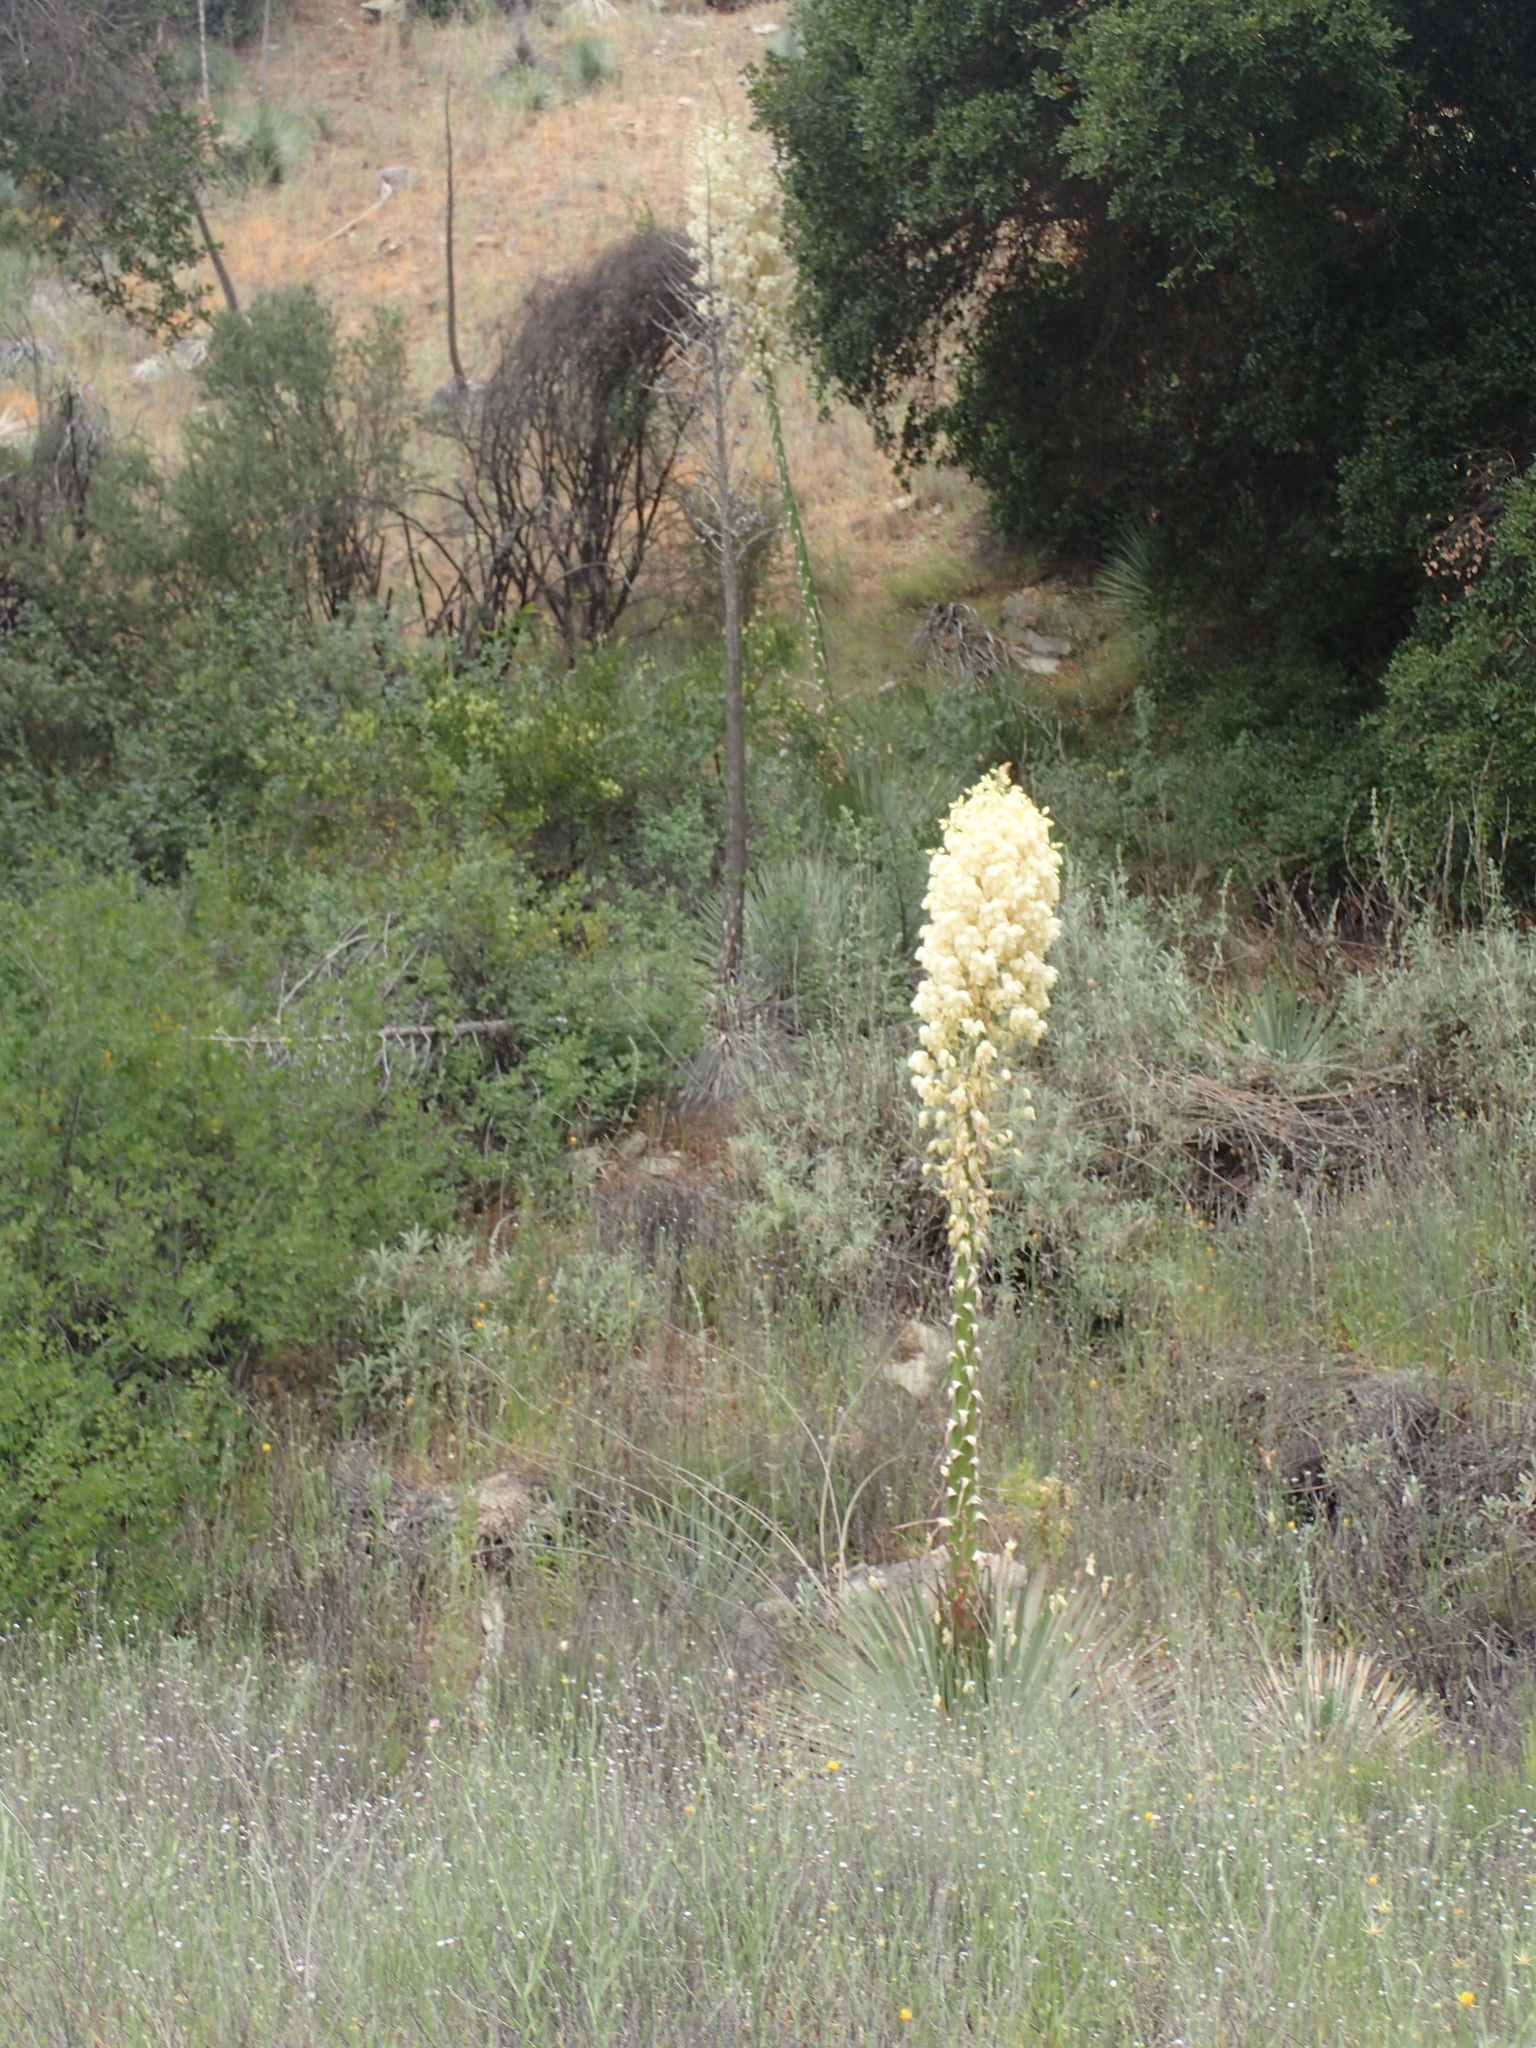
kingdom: Plantae
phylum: Tracheophyta
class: Liliopsida
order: Asparagales
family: Asparagaceae
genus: Hesperoyucca
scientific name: Hesperoyucca whipplei
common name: Our lord's-candle
